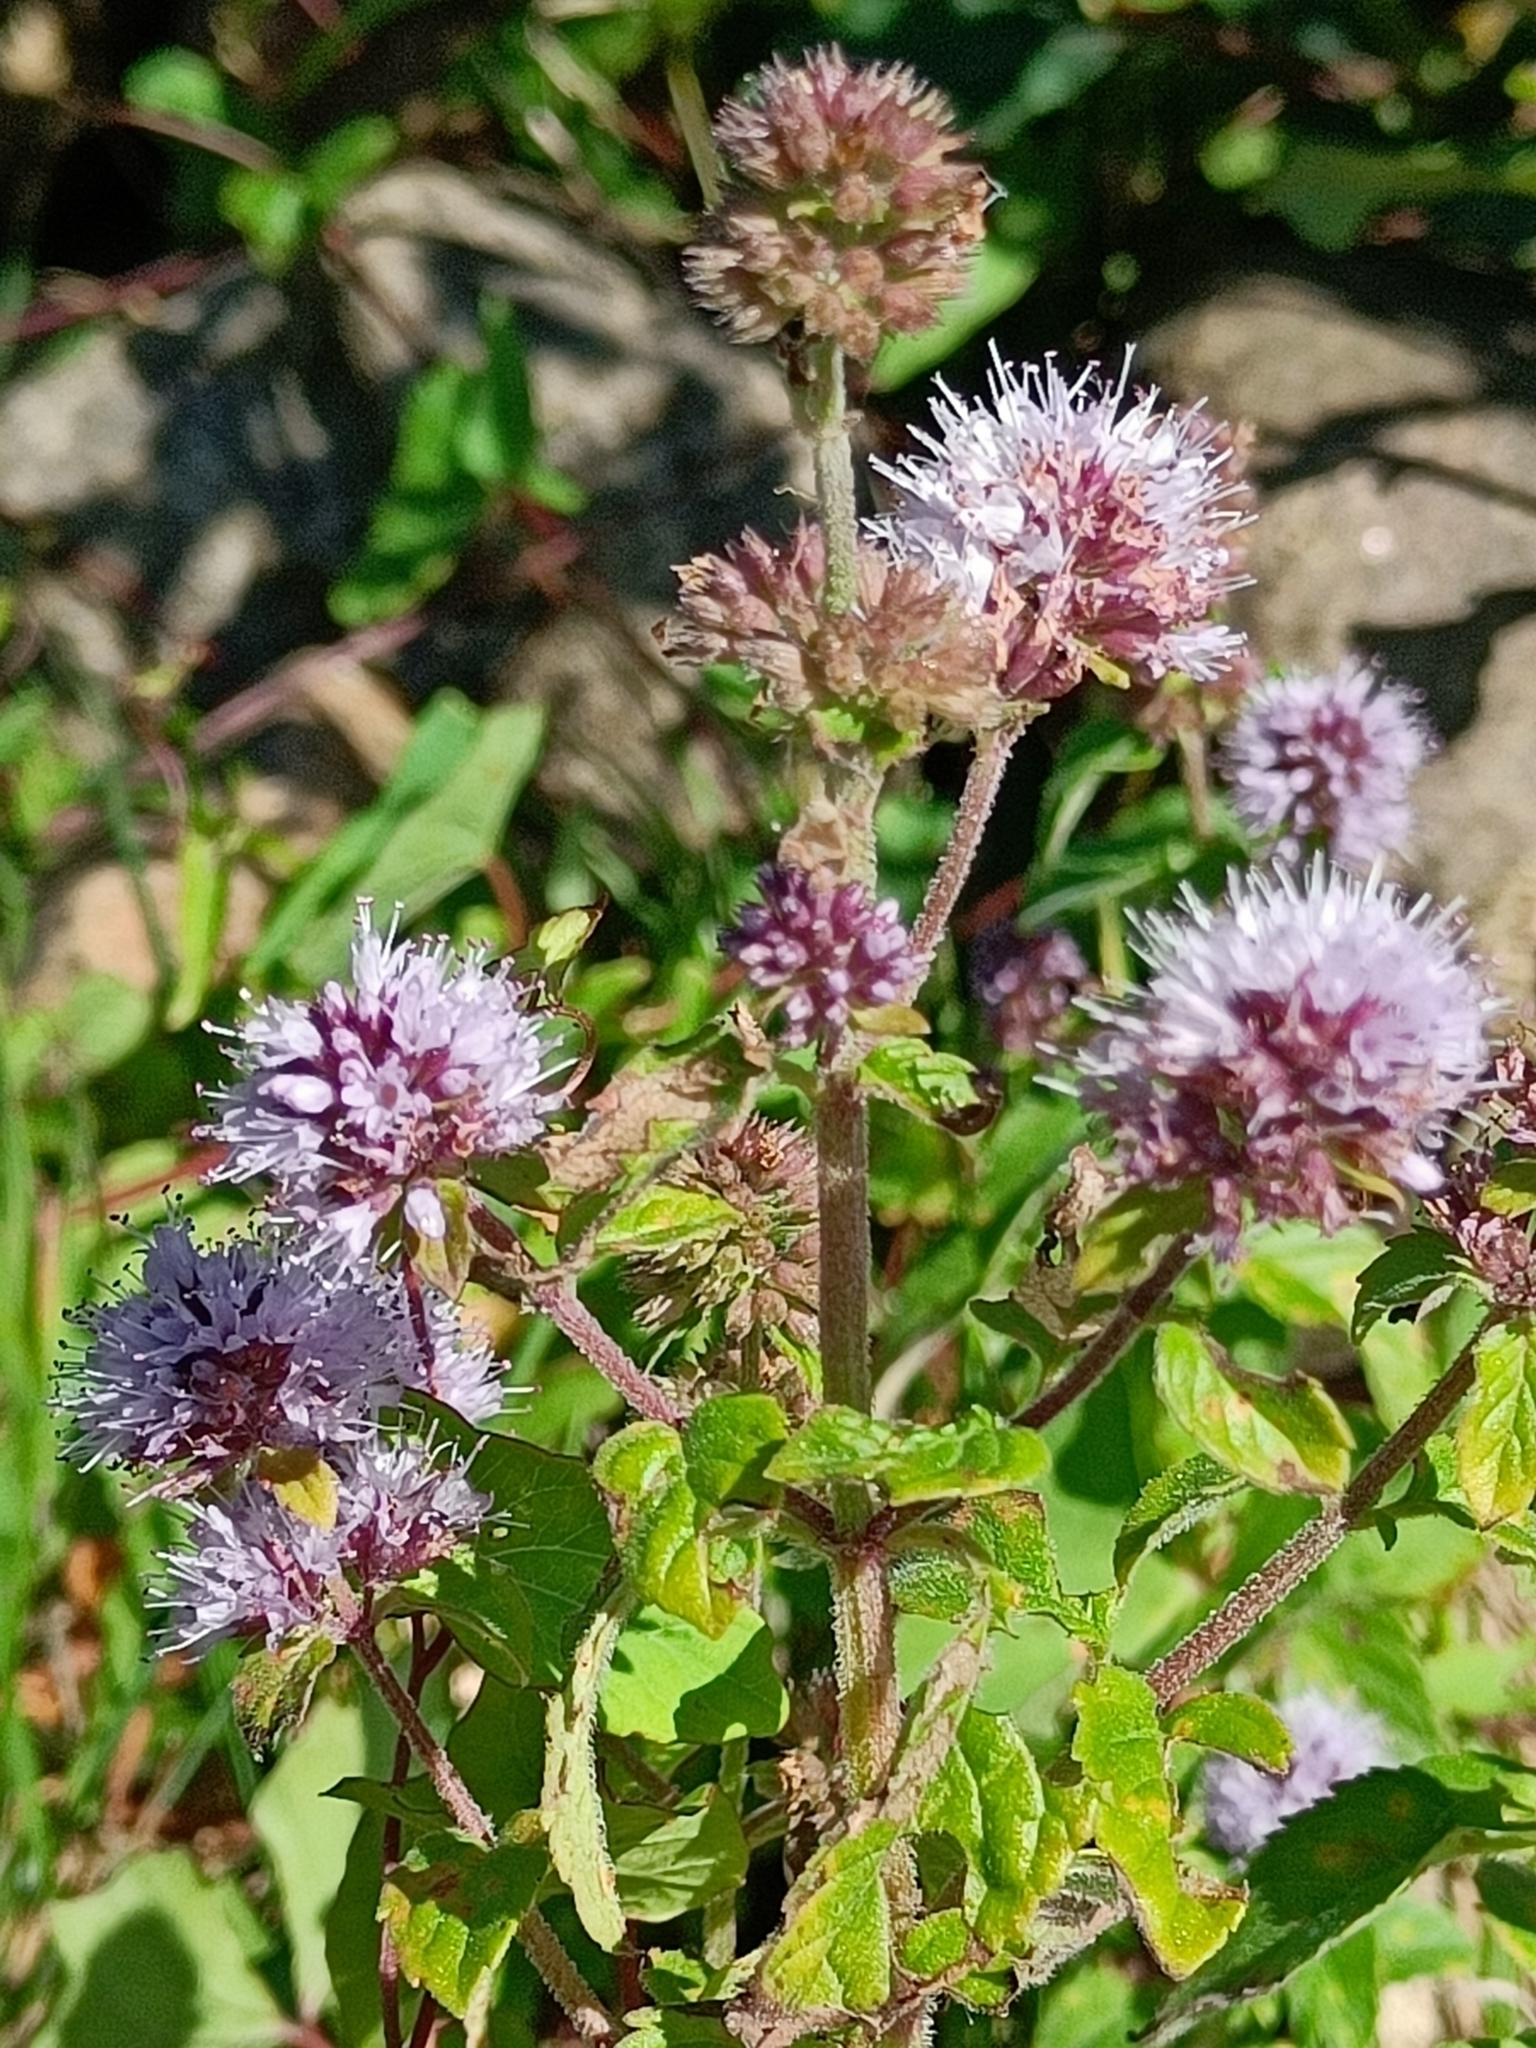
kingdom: Plantae
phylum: Tracheophyta
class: Magnoliopsida
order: Lamiales
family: Lamiaceae
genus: Mentha
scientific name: Mentha aquatica
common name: Water mint
